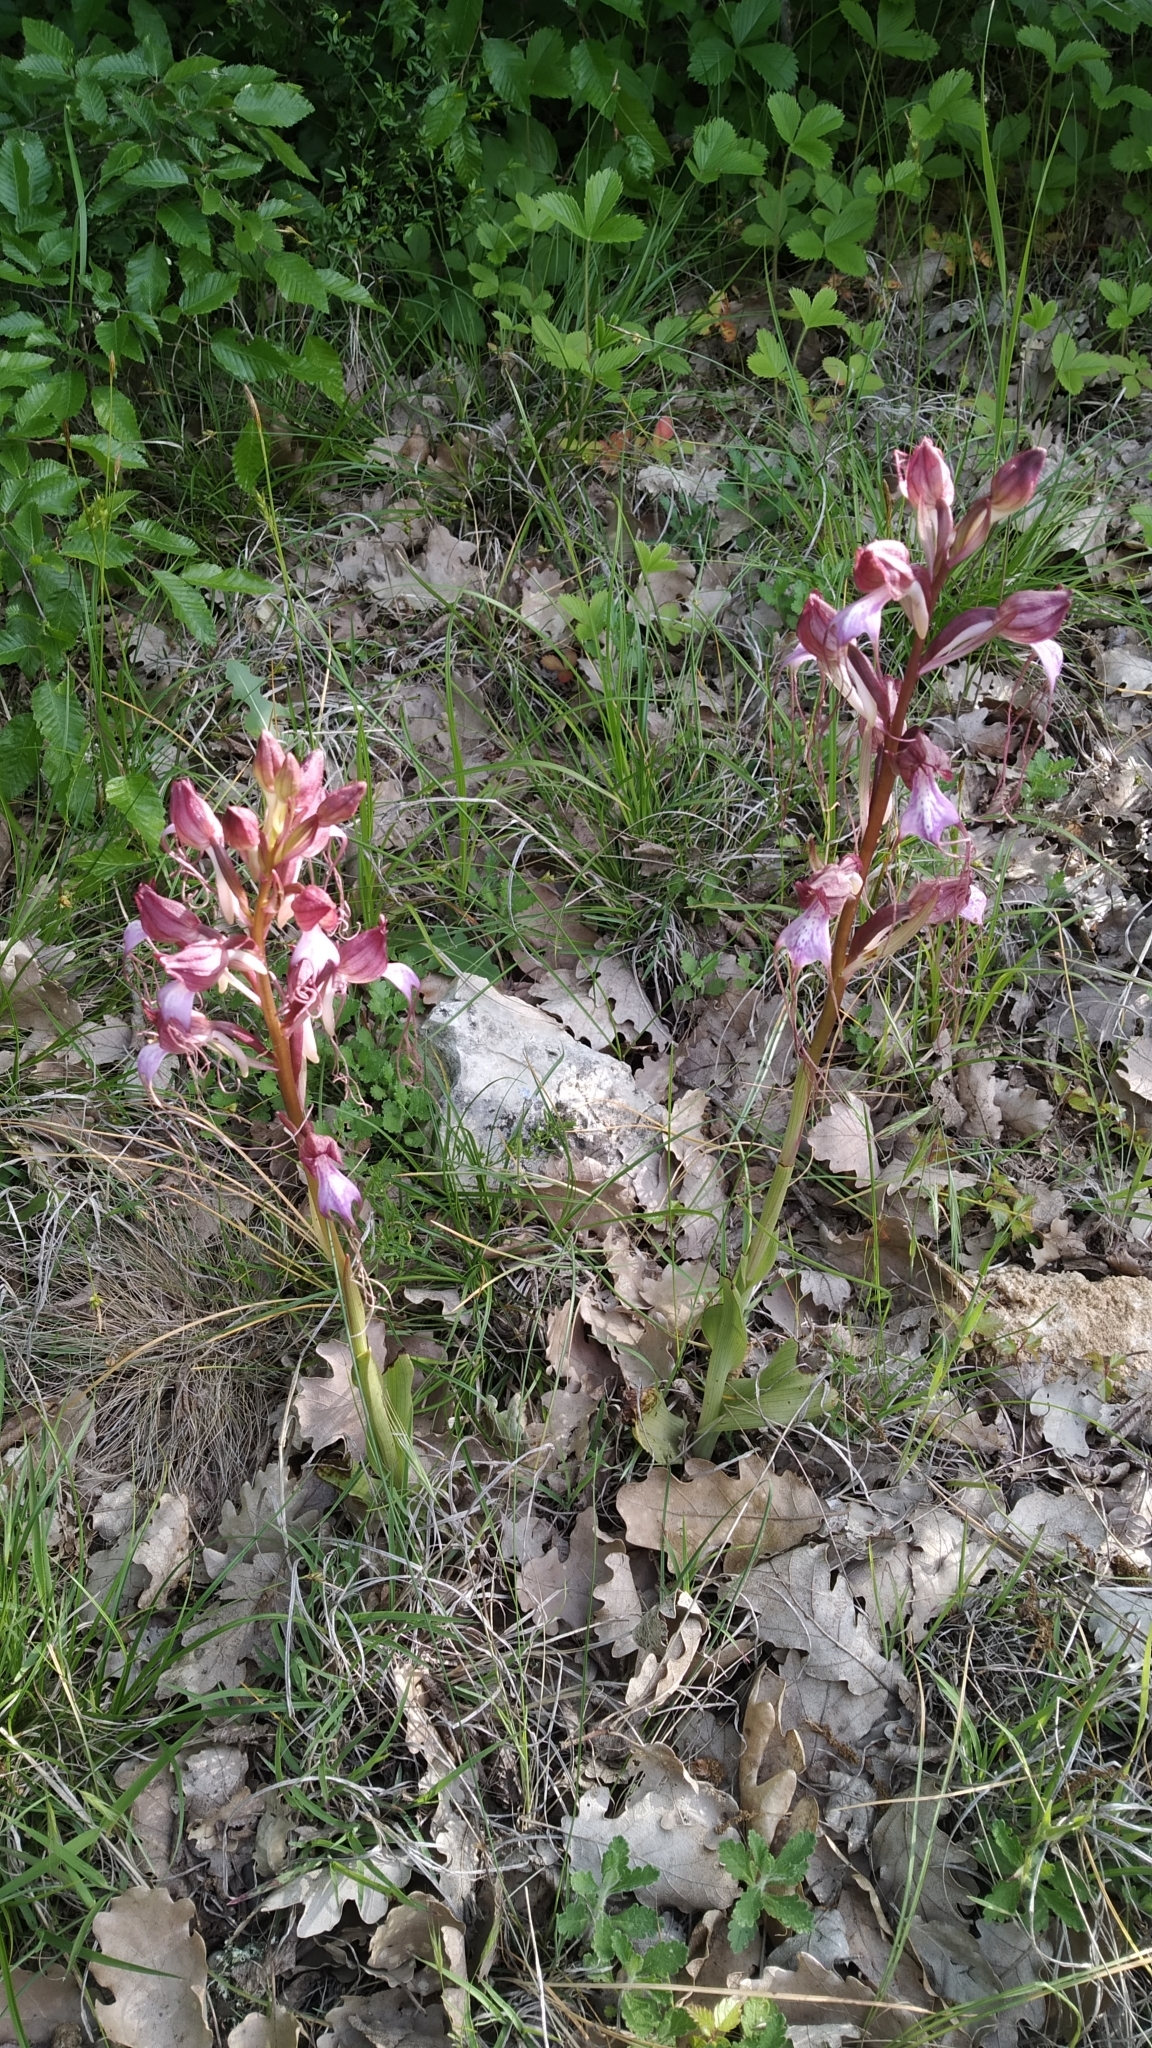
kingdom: Plantae
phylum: Tracheophyta
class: Liliopsida
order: Asparagales
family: Orchidaceae
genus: Himantoglossum
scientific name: Himantoglossum comperianum
